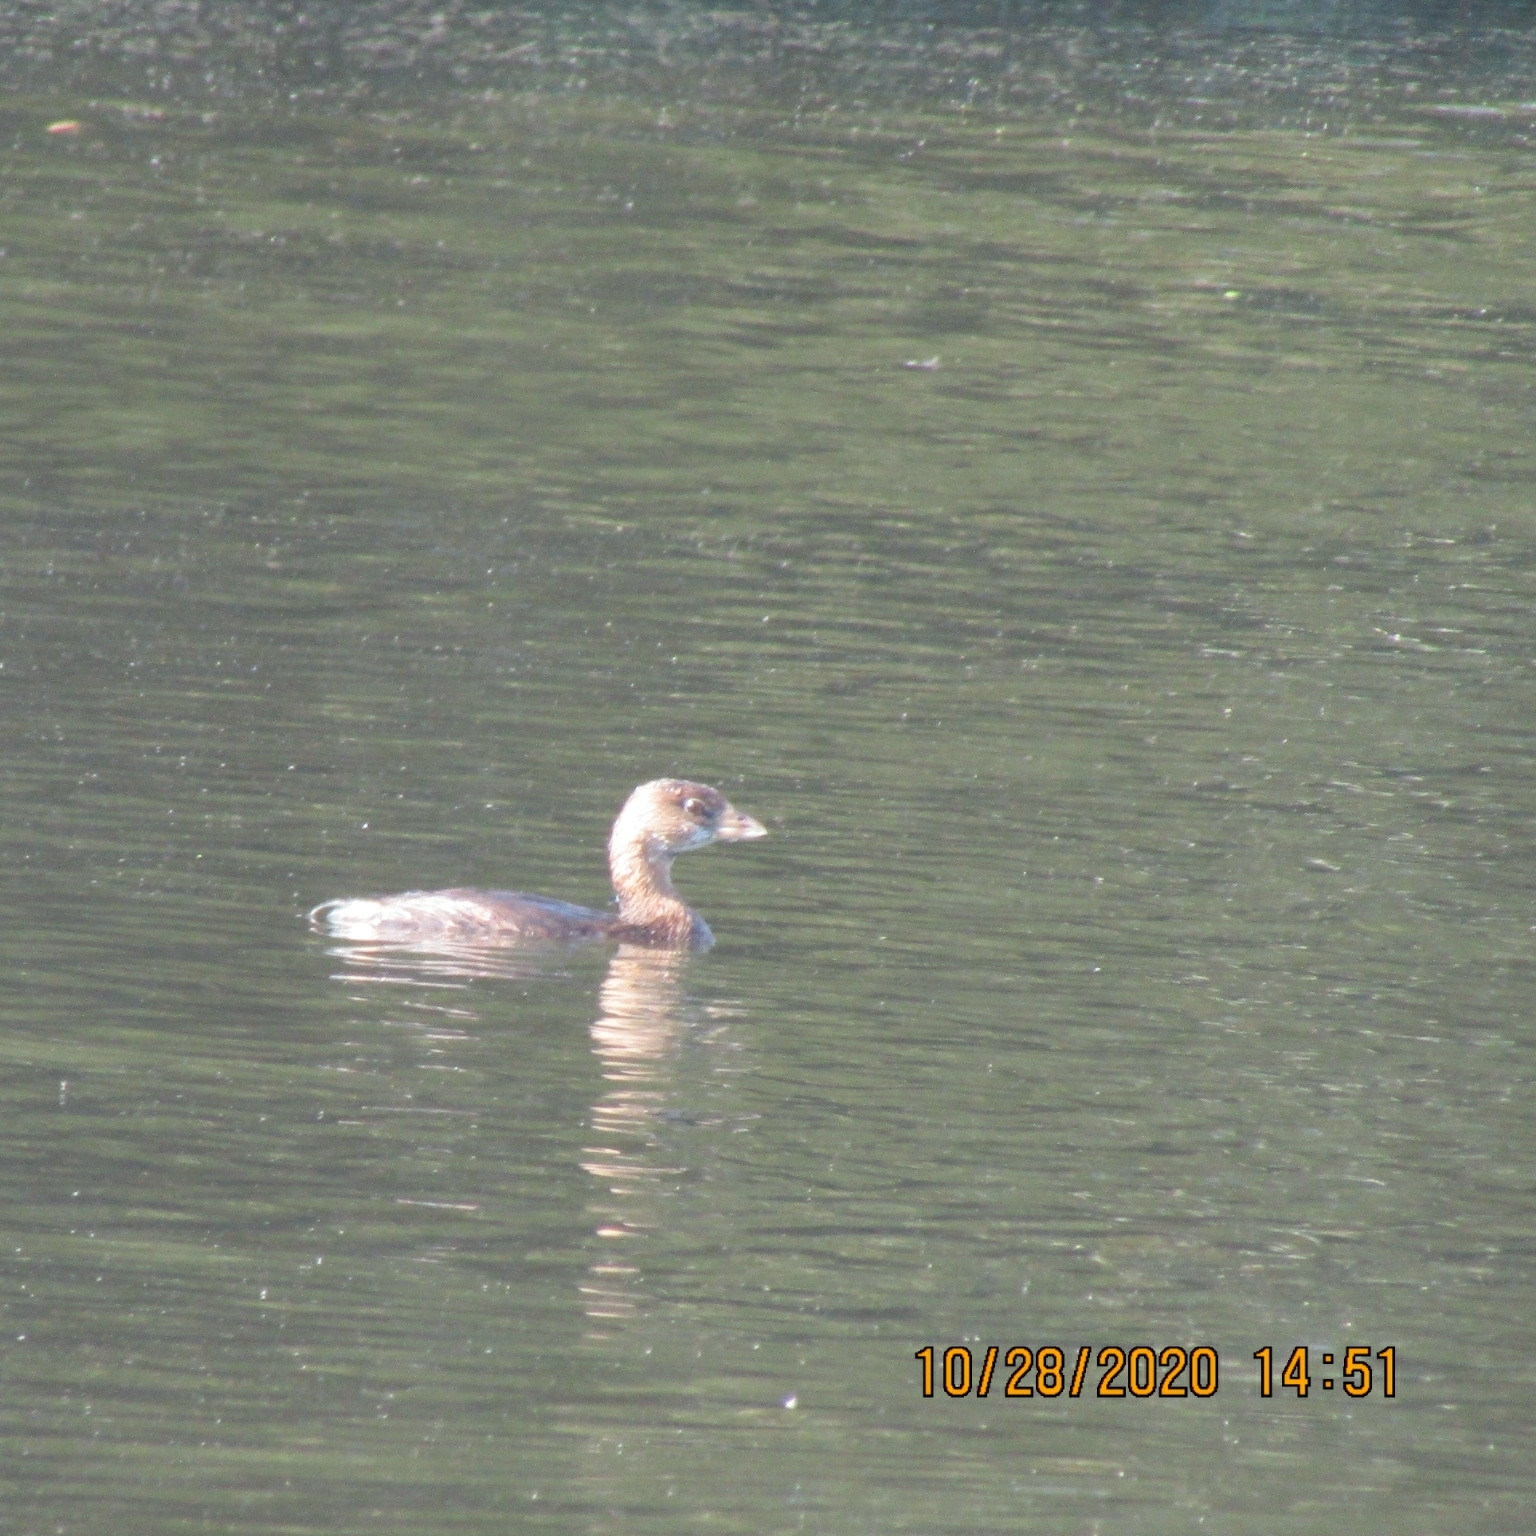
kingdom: Animalia
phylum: Chordata
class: Aves
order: Podicipediformes
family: Podicipedidae
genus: Podilymbus
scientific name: Podilymbus podiceps
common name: Pied-billed grebe
